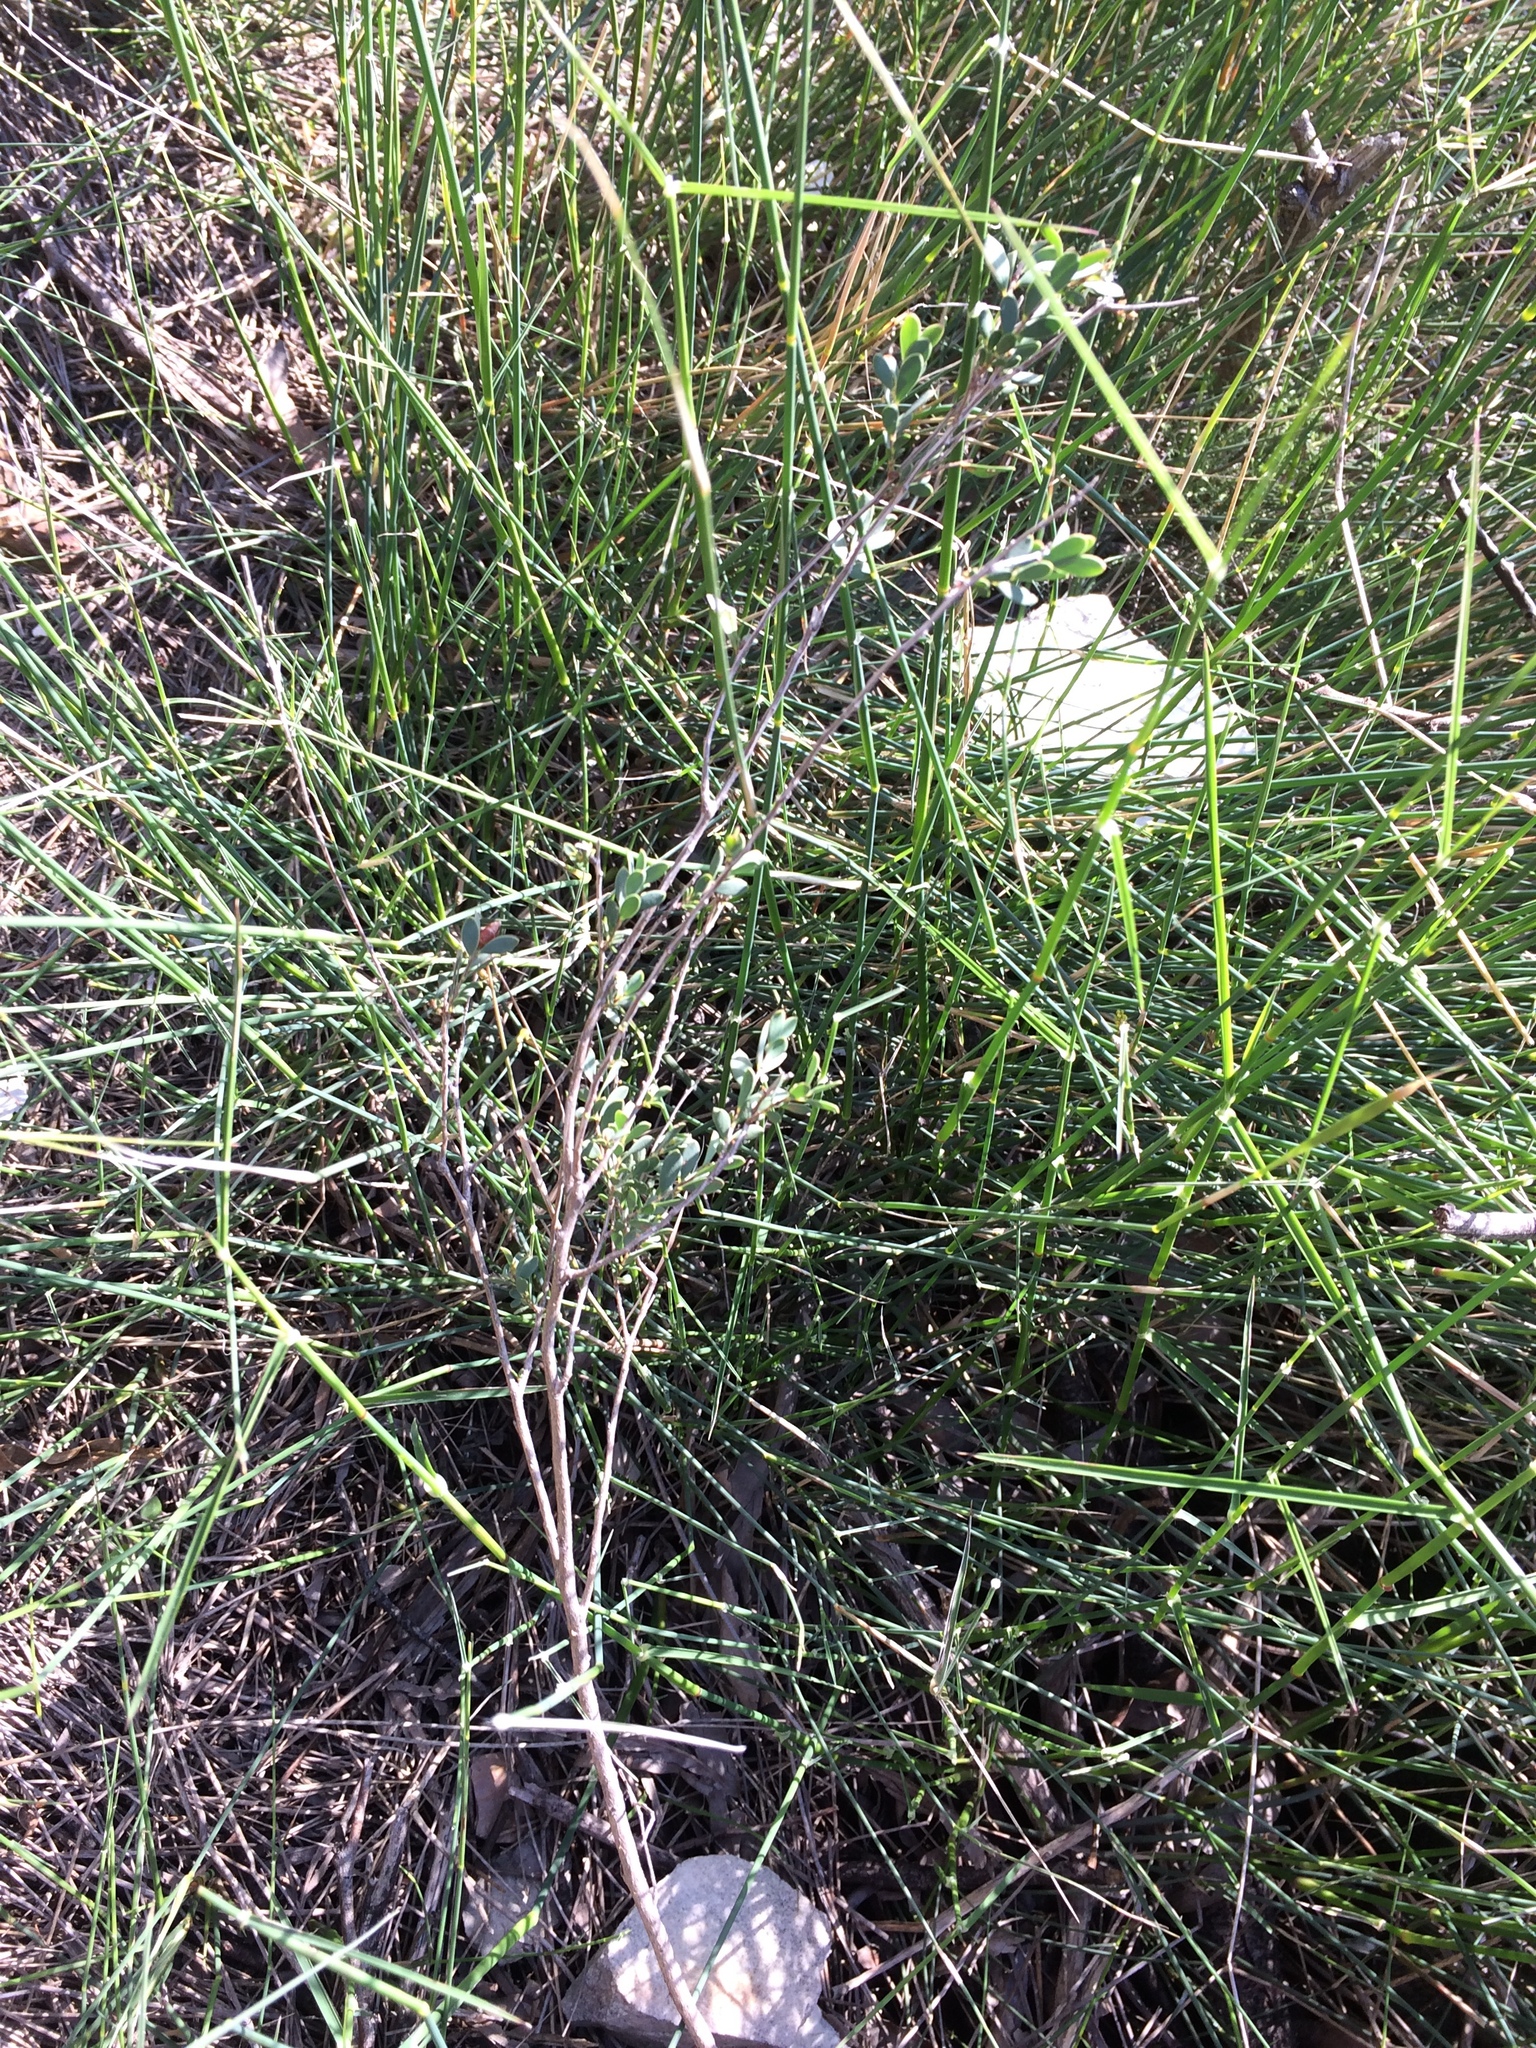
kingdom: Plantae
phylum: Tracheophyta
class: Magnoliopsida
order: Myrtales
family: Myrtaceae
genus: Leptospermum
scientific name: Leptospermum laevigatum
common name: Australian teatree
